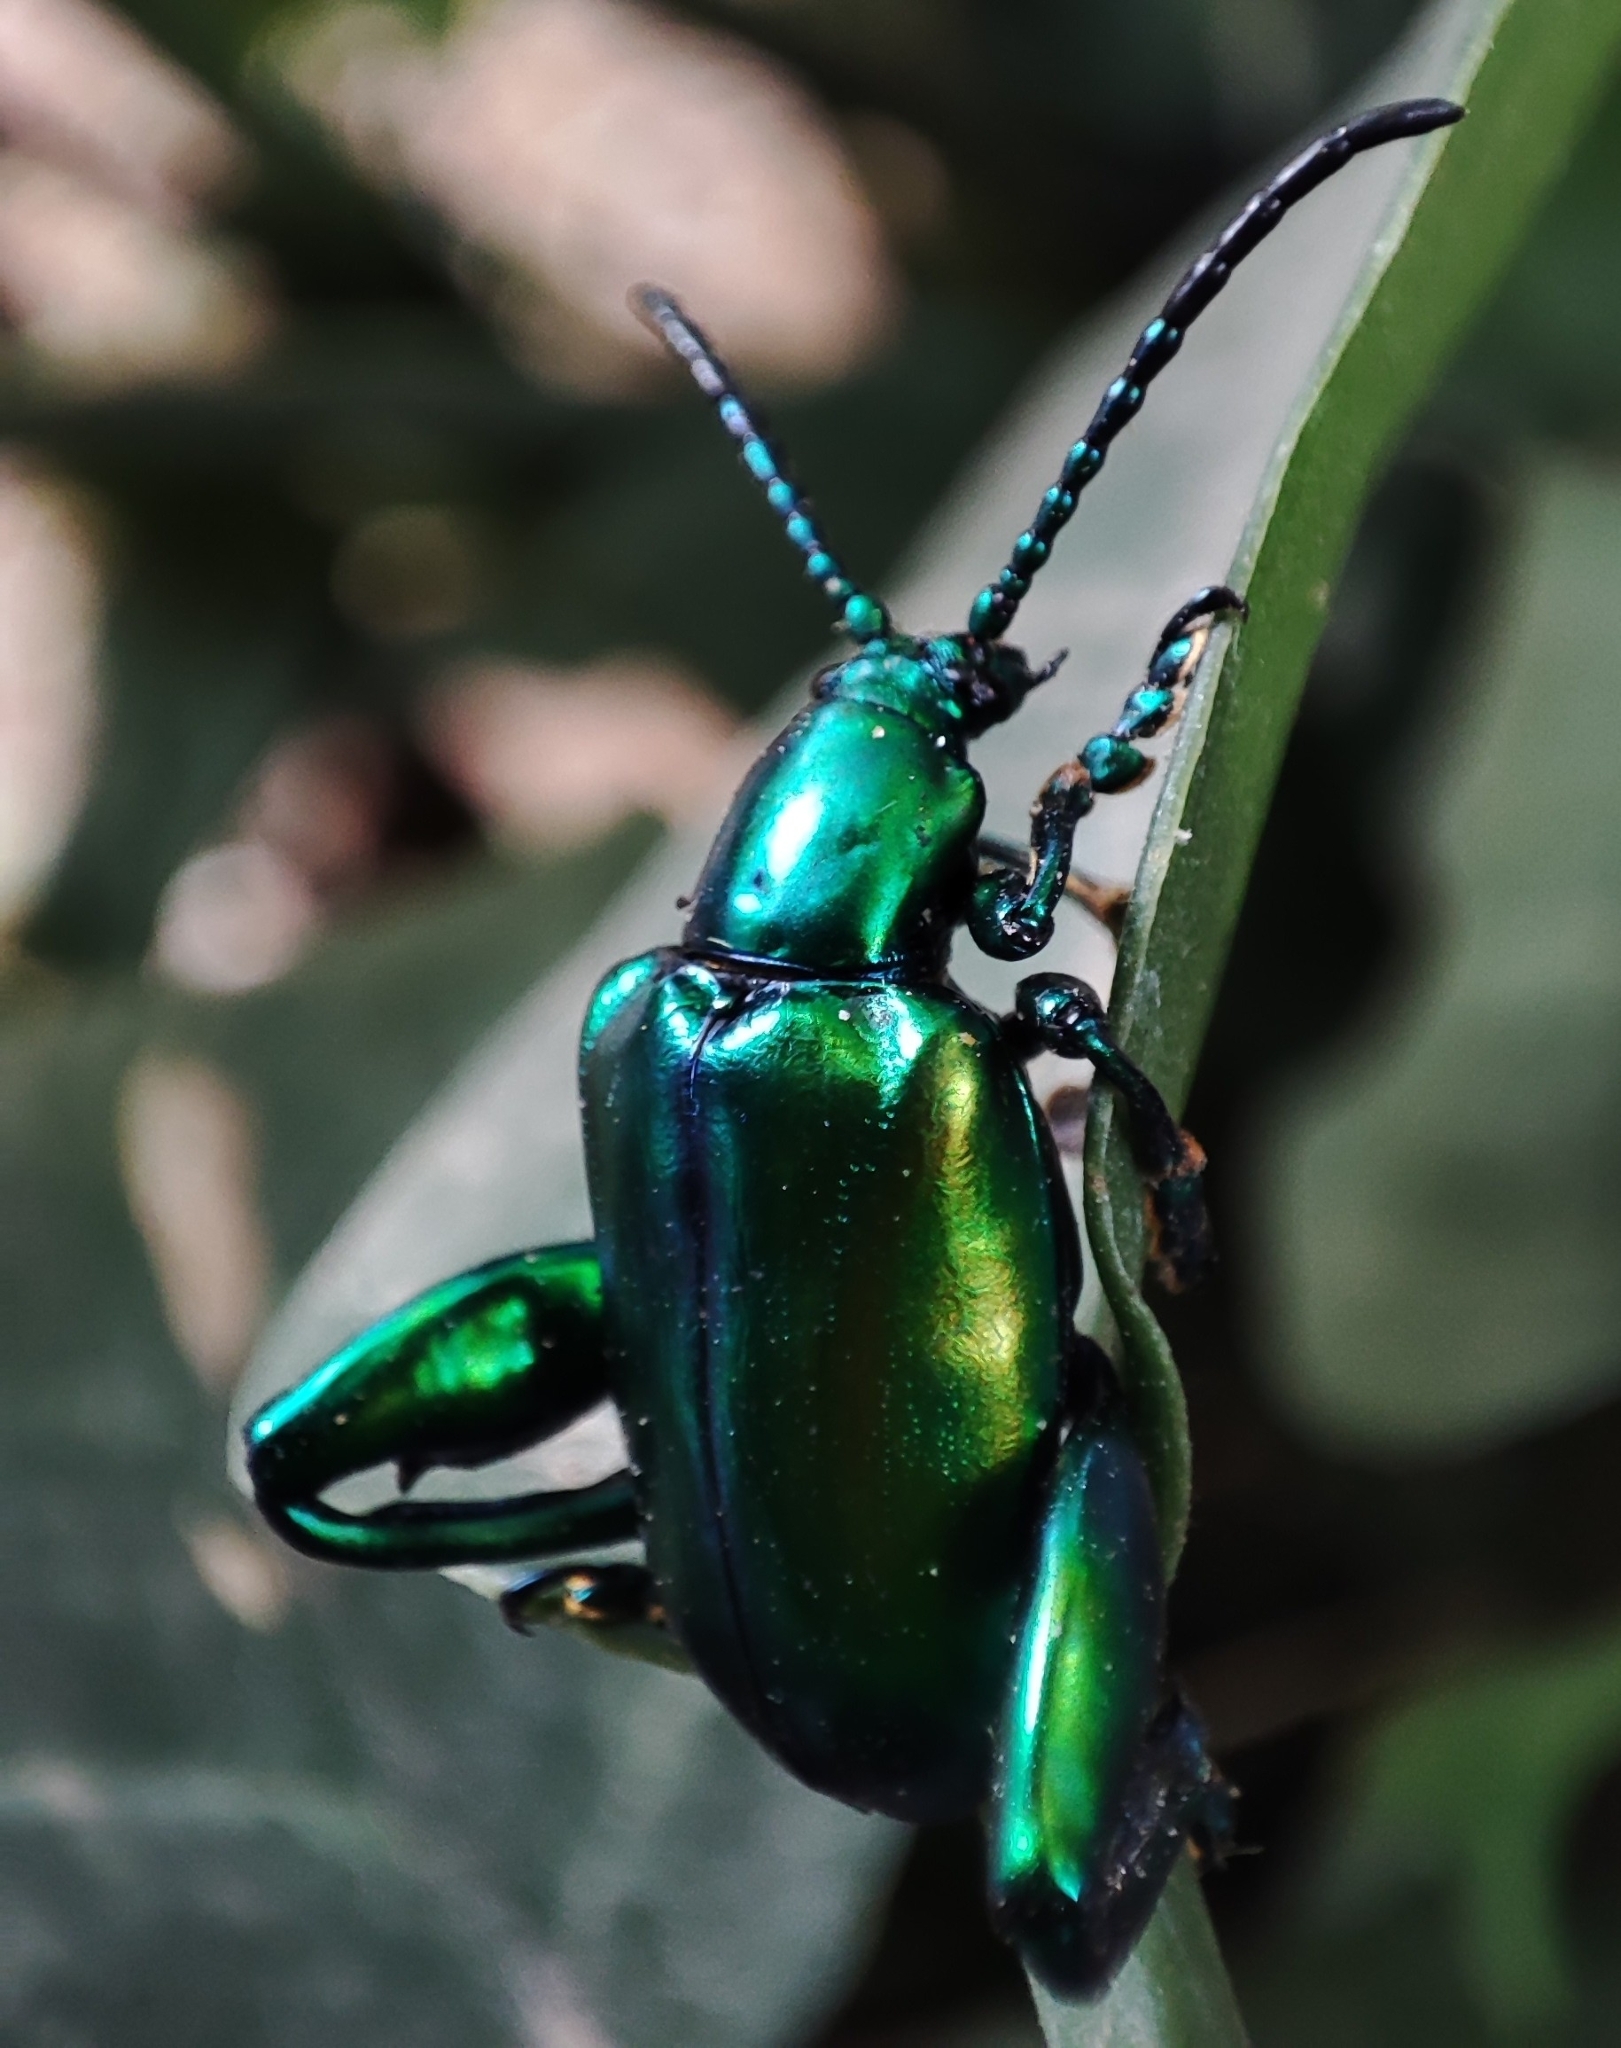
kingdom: Animalia
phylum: Arthropoda
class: Insecta
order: Coleoptera
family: Chrysomelidae
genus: Sagra
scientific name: Sagra femorata
